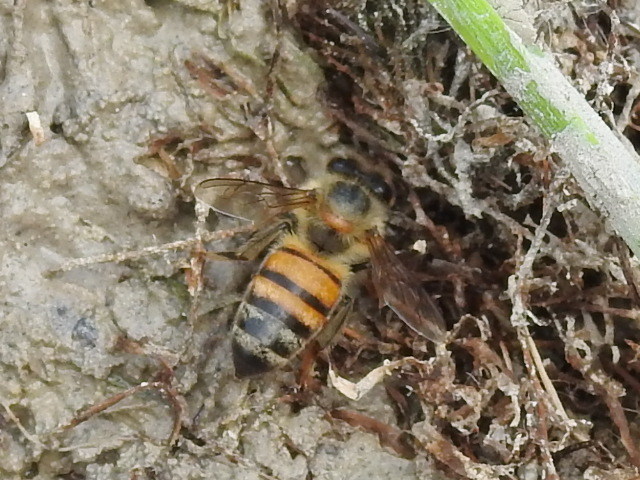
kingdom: Animalia
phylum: Arthropoda
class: Insecta
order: Hymenoptera
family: Apidae
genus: Apis
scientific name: Apis mellifera
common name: Honey bee
